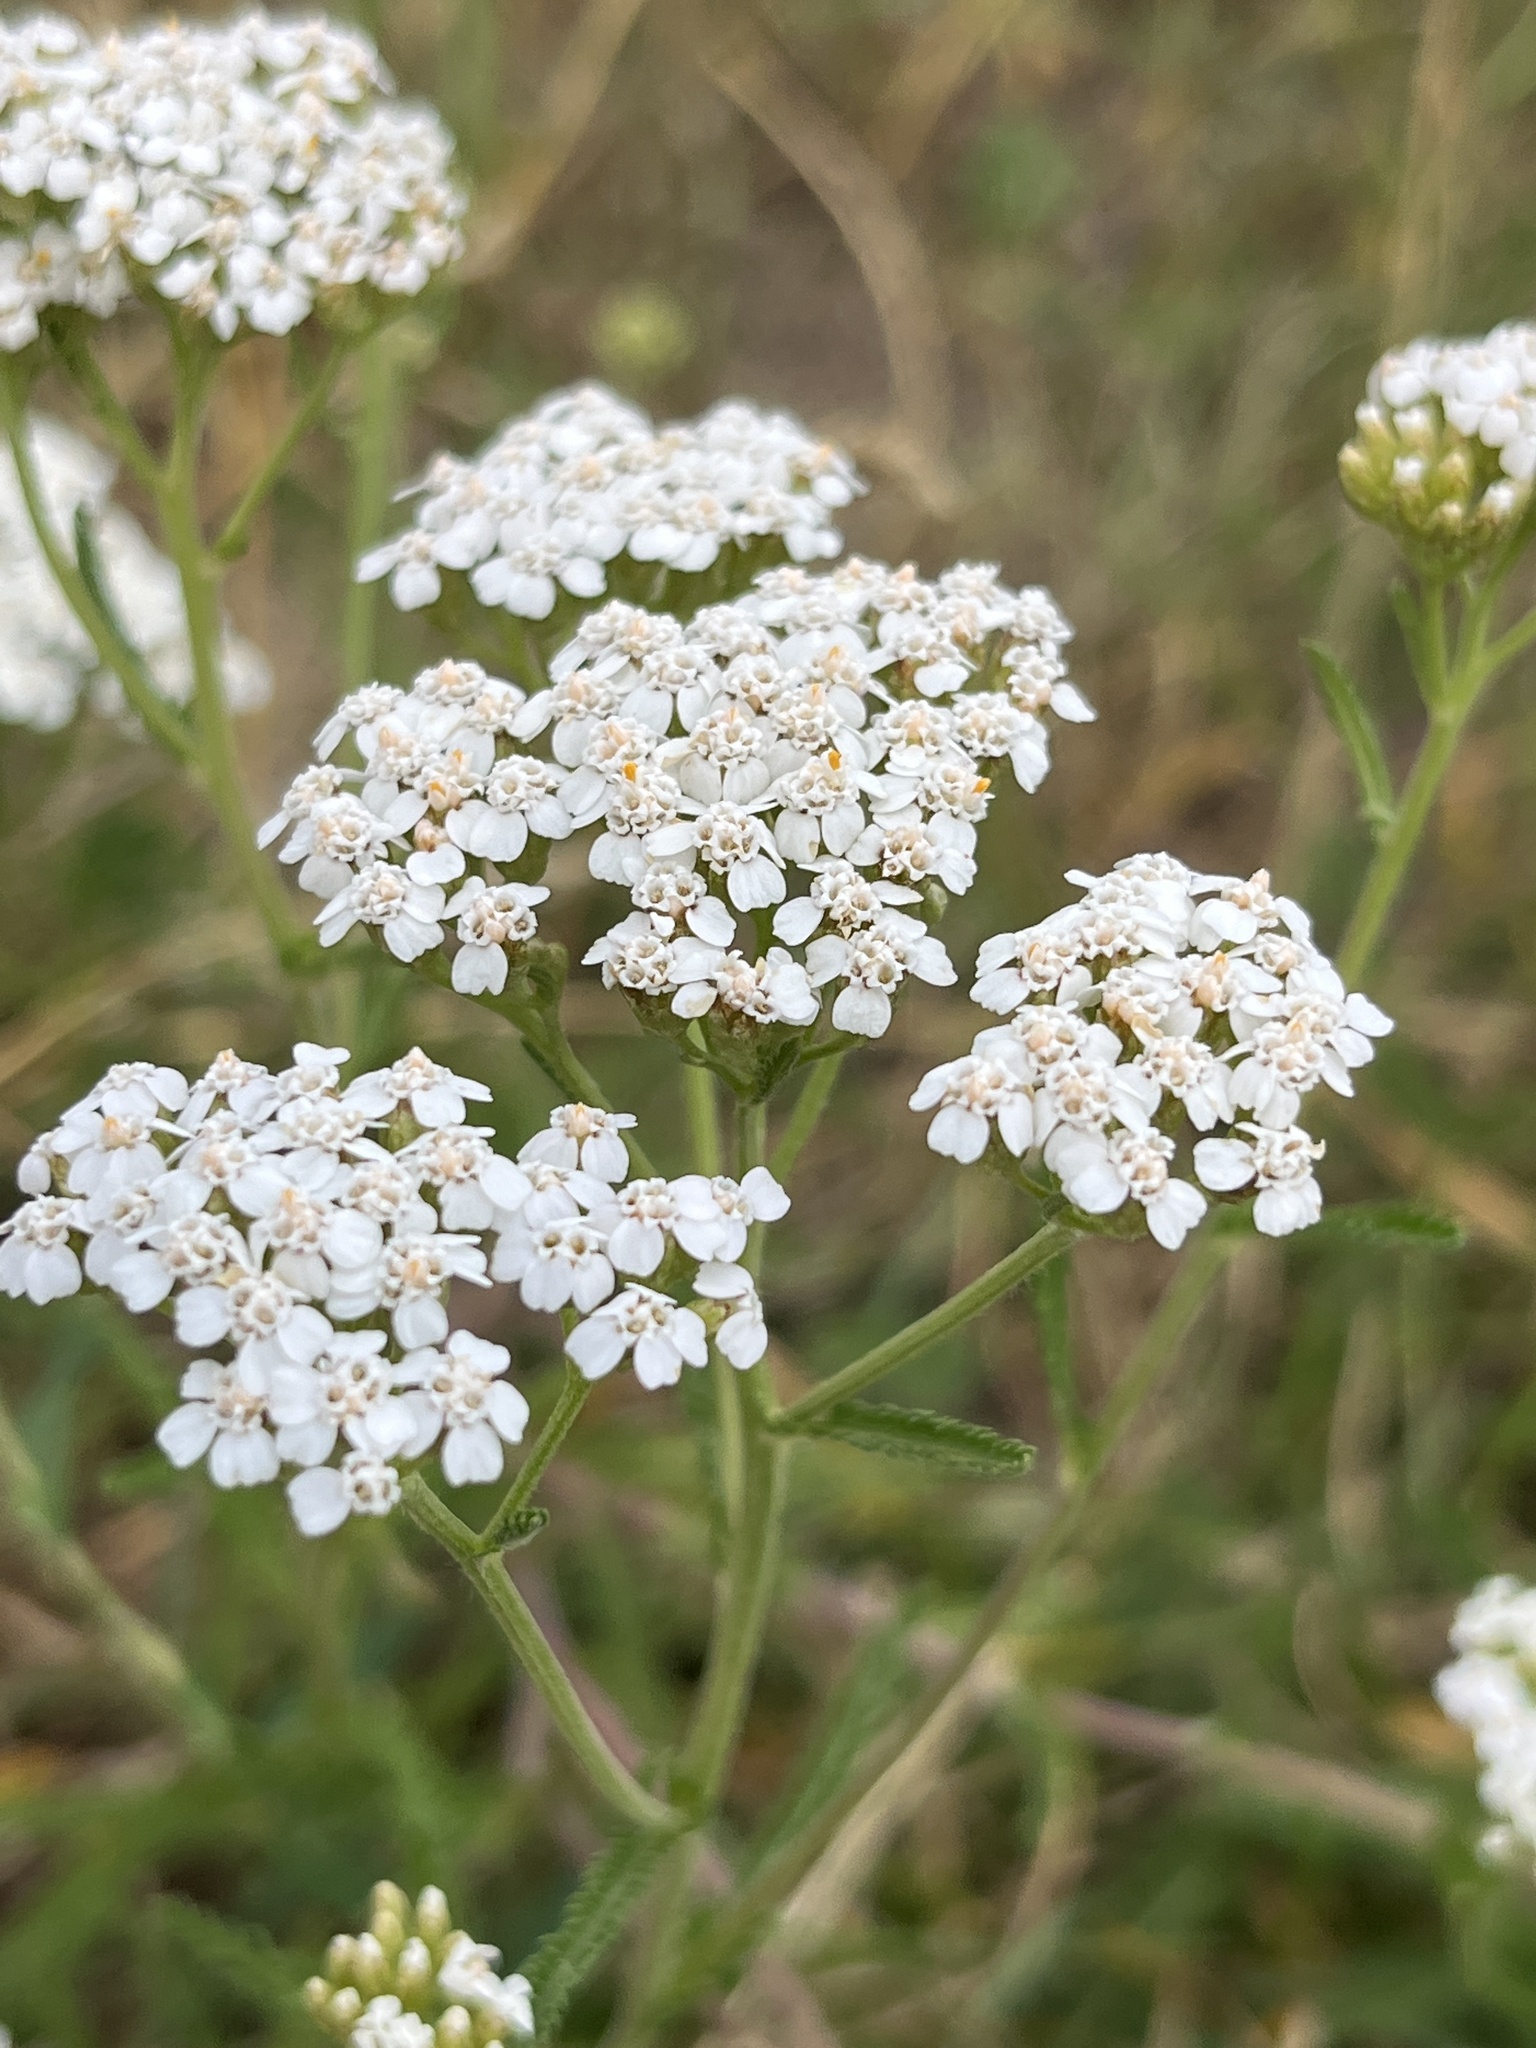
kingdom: Plantae
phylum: Tracheophyta
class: Magnoliopsida
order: Asterales
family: Asteraceae
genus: Achillea
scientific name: Achillea millefolium
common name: Yarrow
